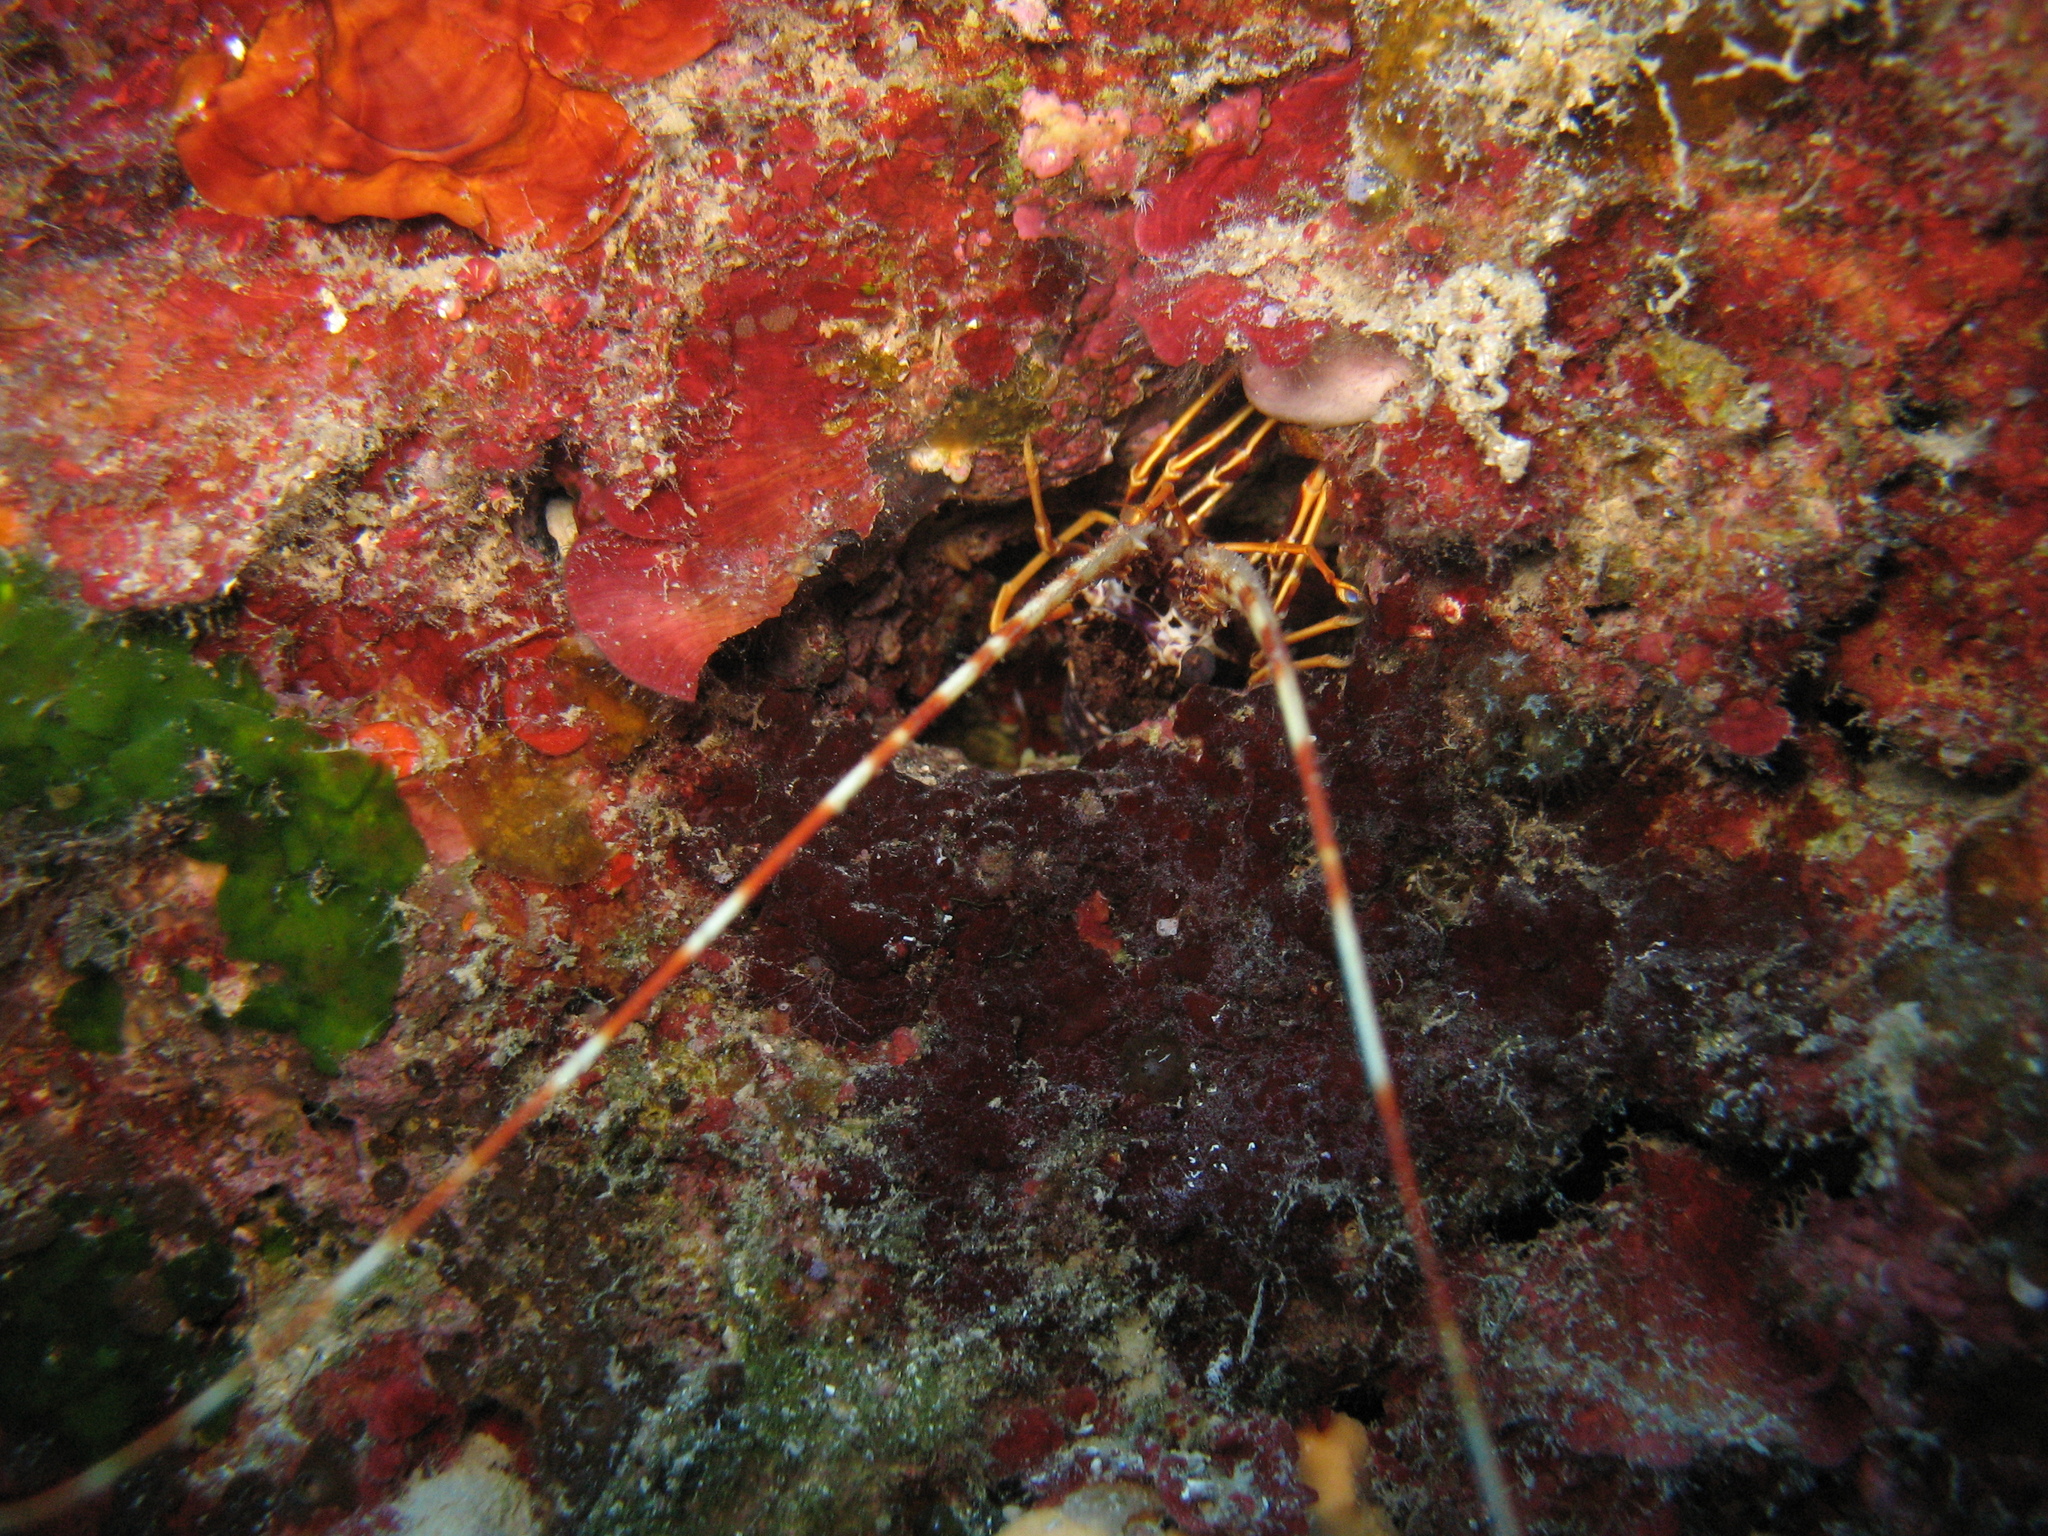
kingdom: Animalia
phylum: Arthropoda
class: Malacostraca
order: Decapoda
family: Palinuridae
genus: Palinurus
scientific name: Palinurus elephas
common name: European spiny lobster
